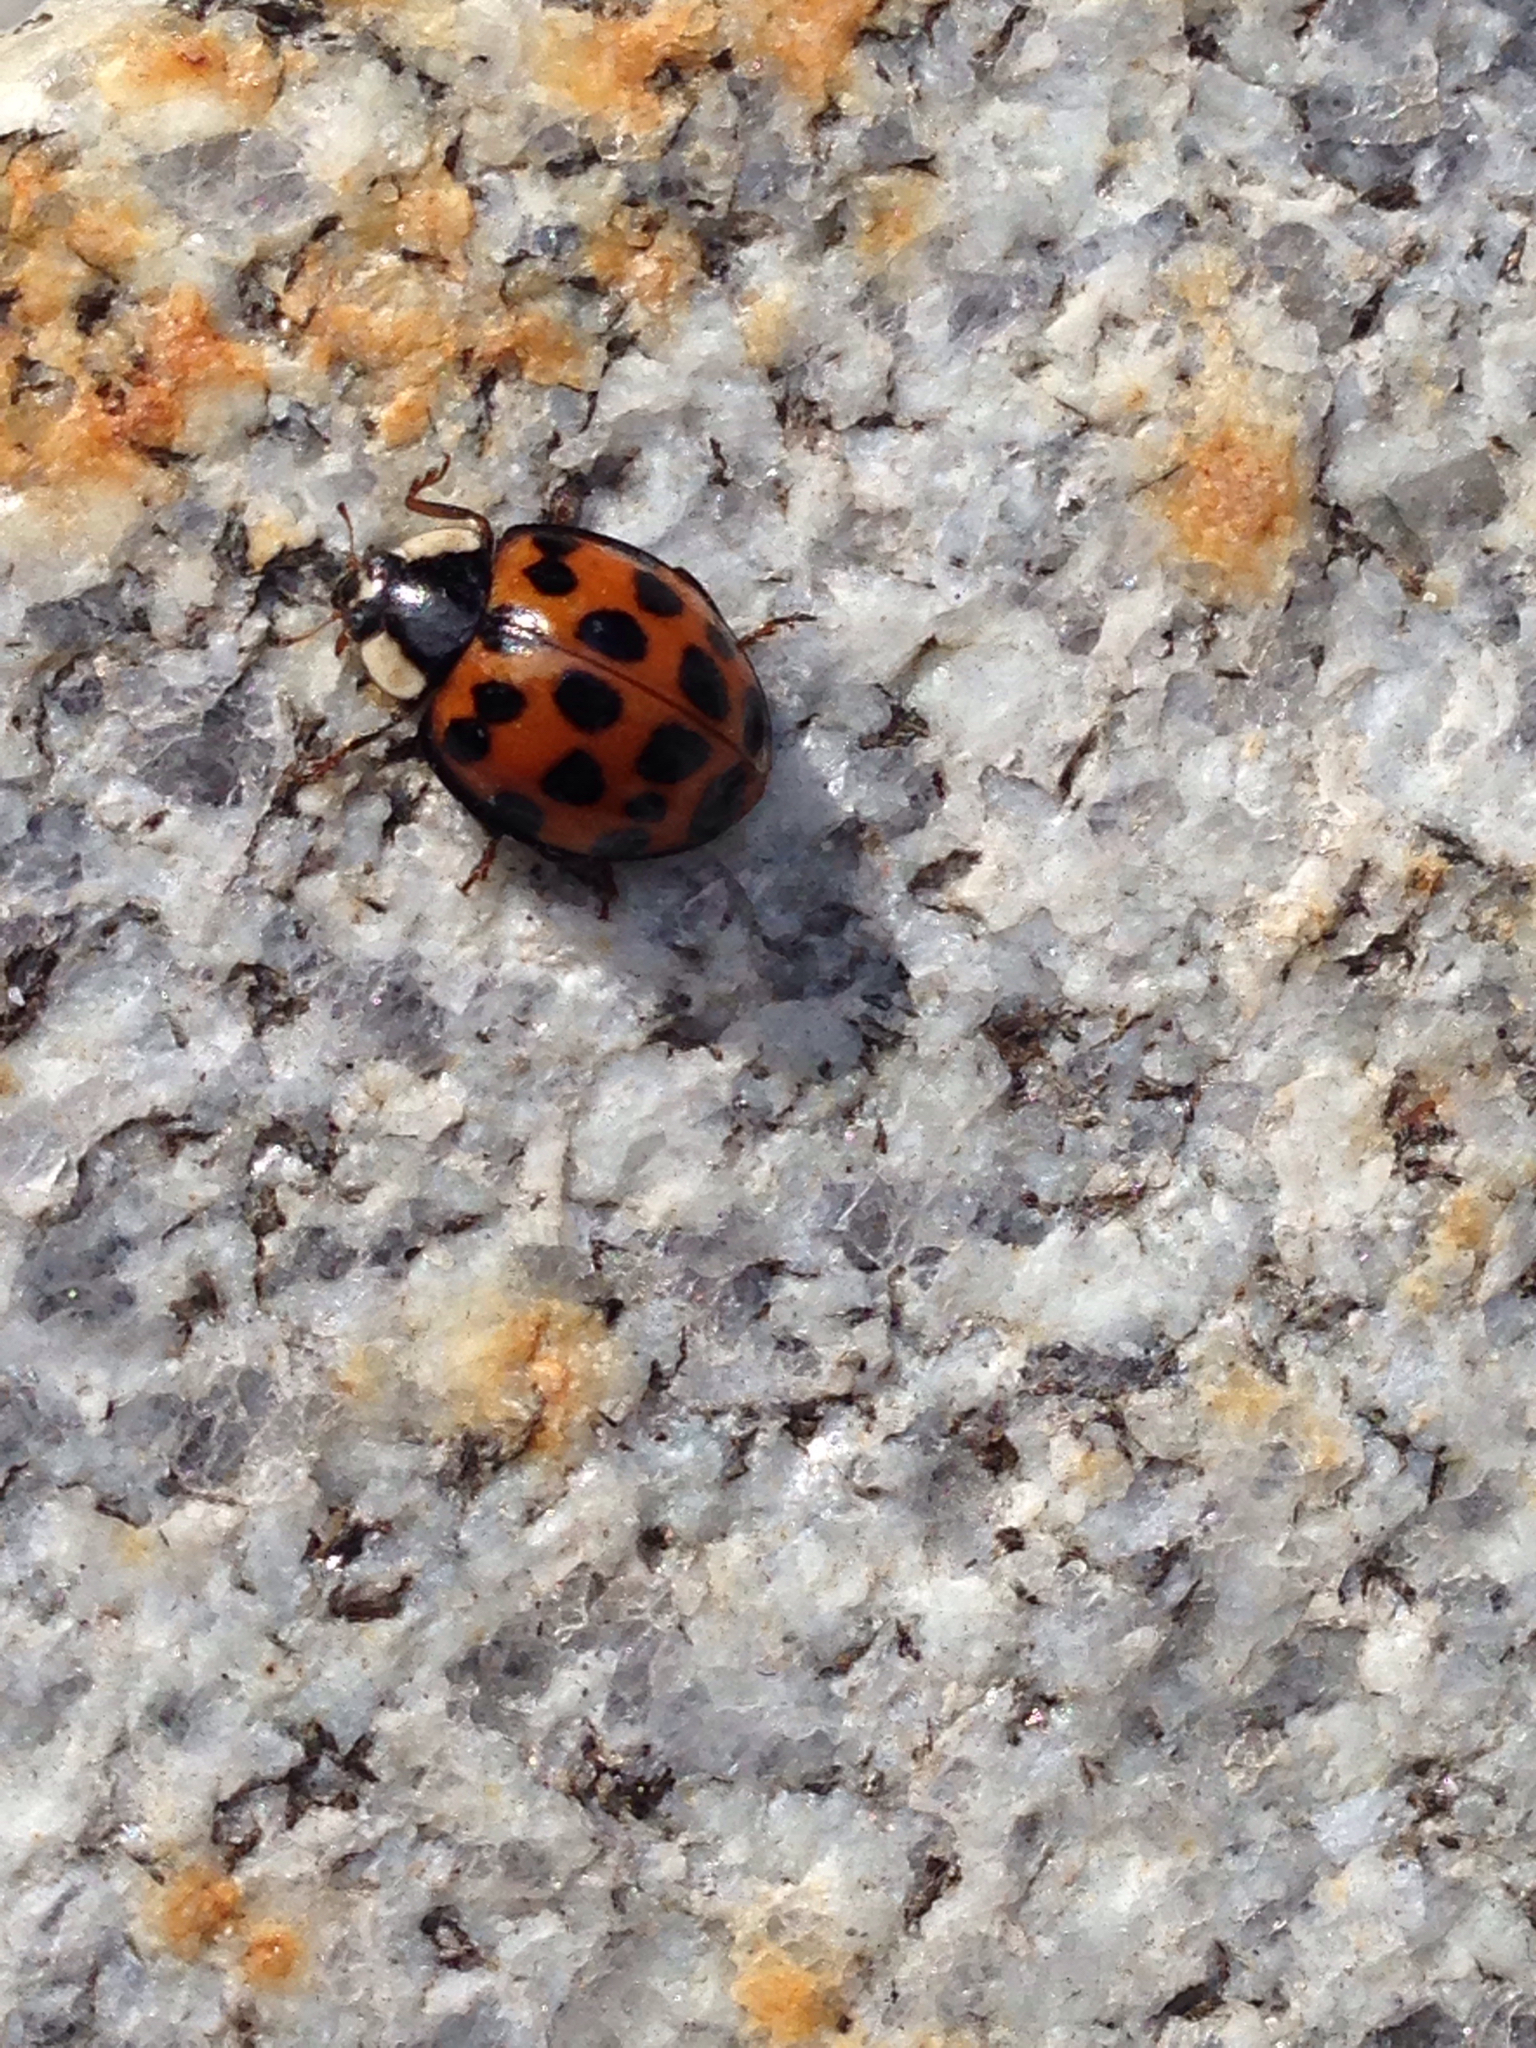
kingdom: Animalia
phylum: Arthropoda
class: Insecta
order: Coleoptera
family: Coccinellidae
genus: Harmonia
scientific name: Harmonia axyridis
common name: Harlequin ladybird
